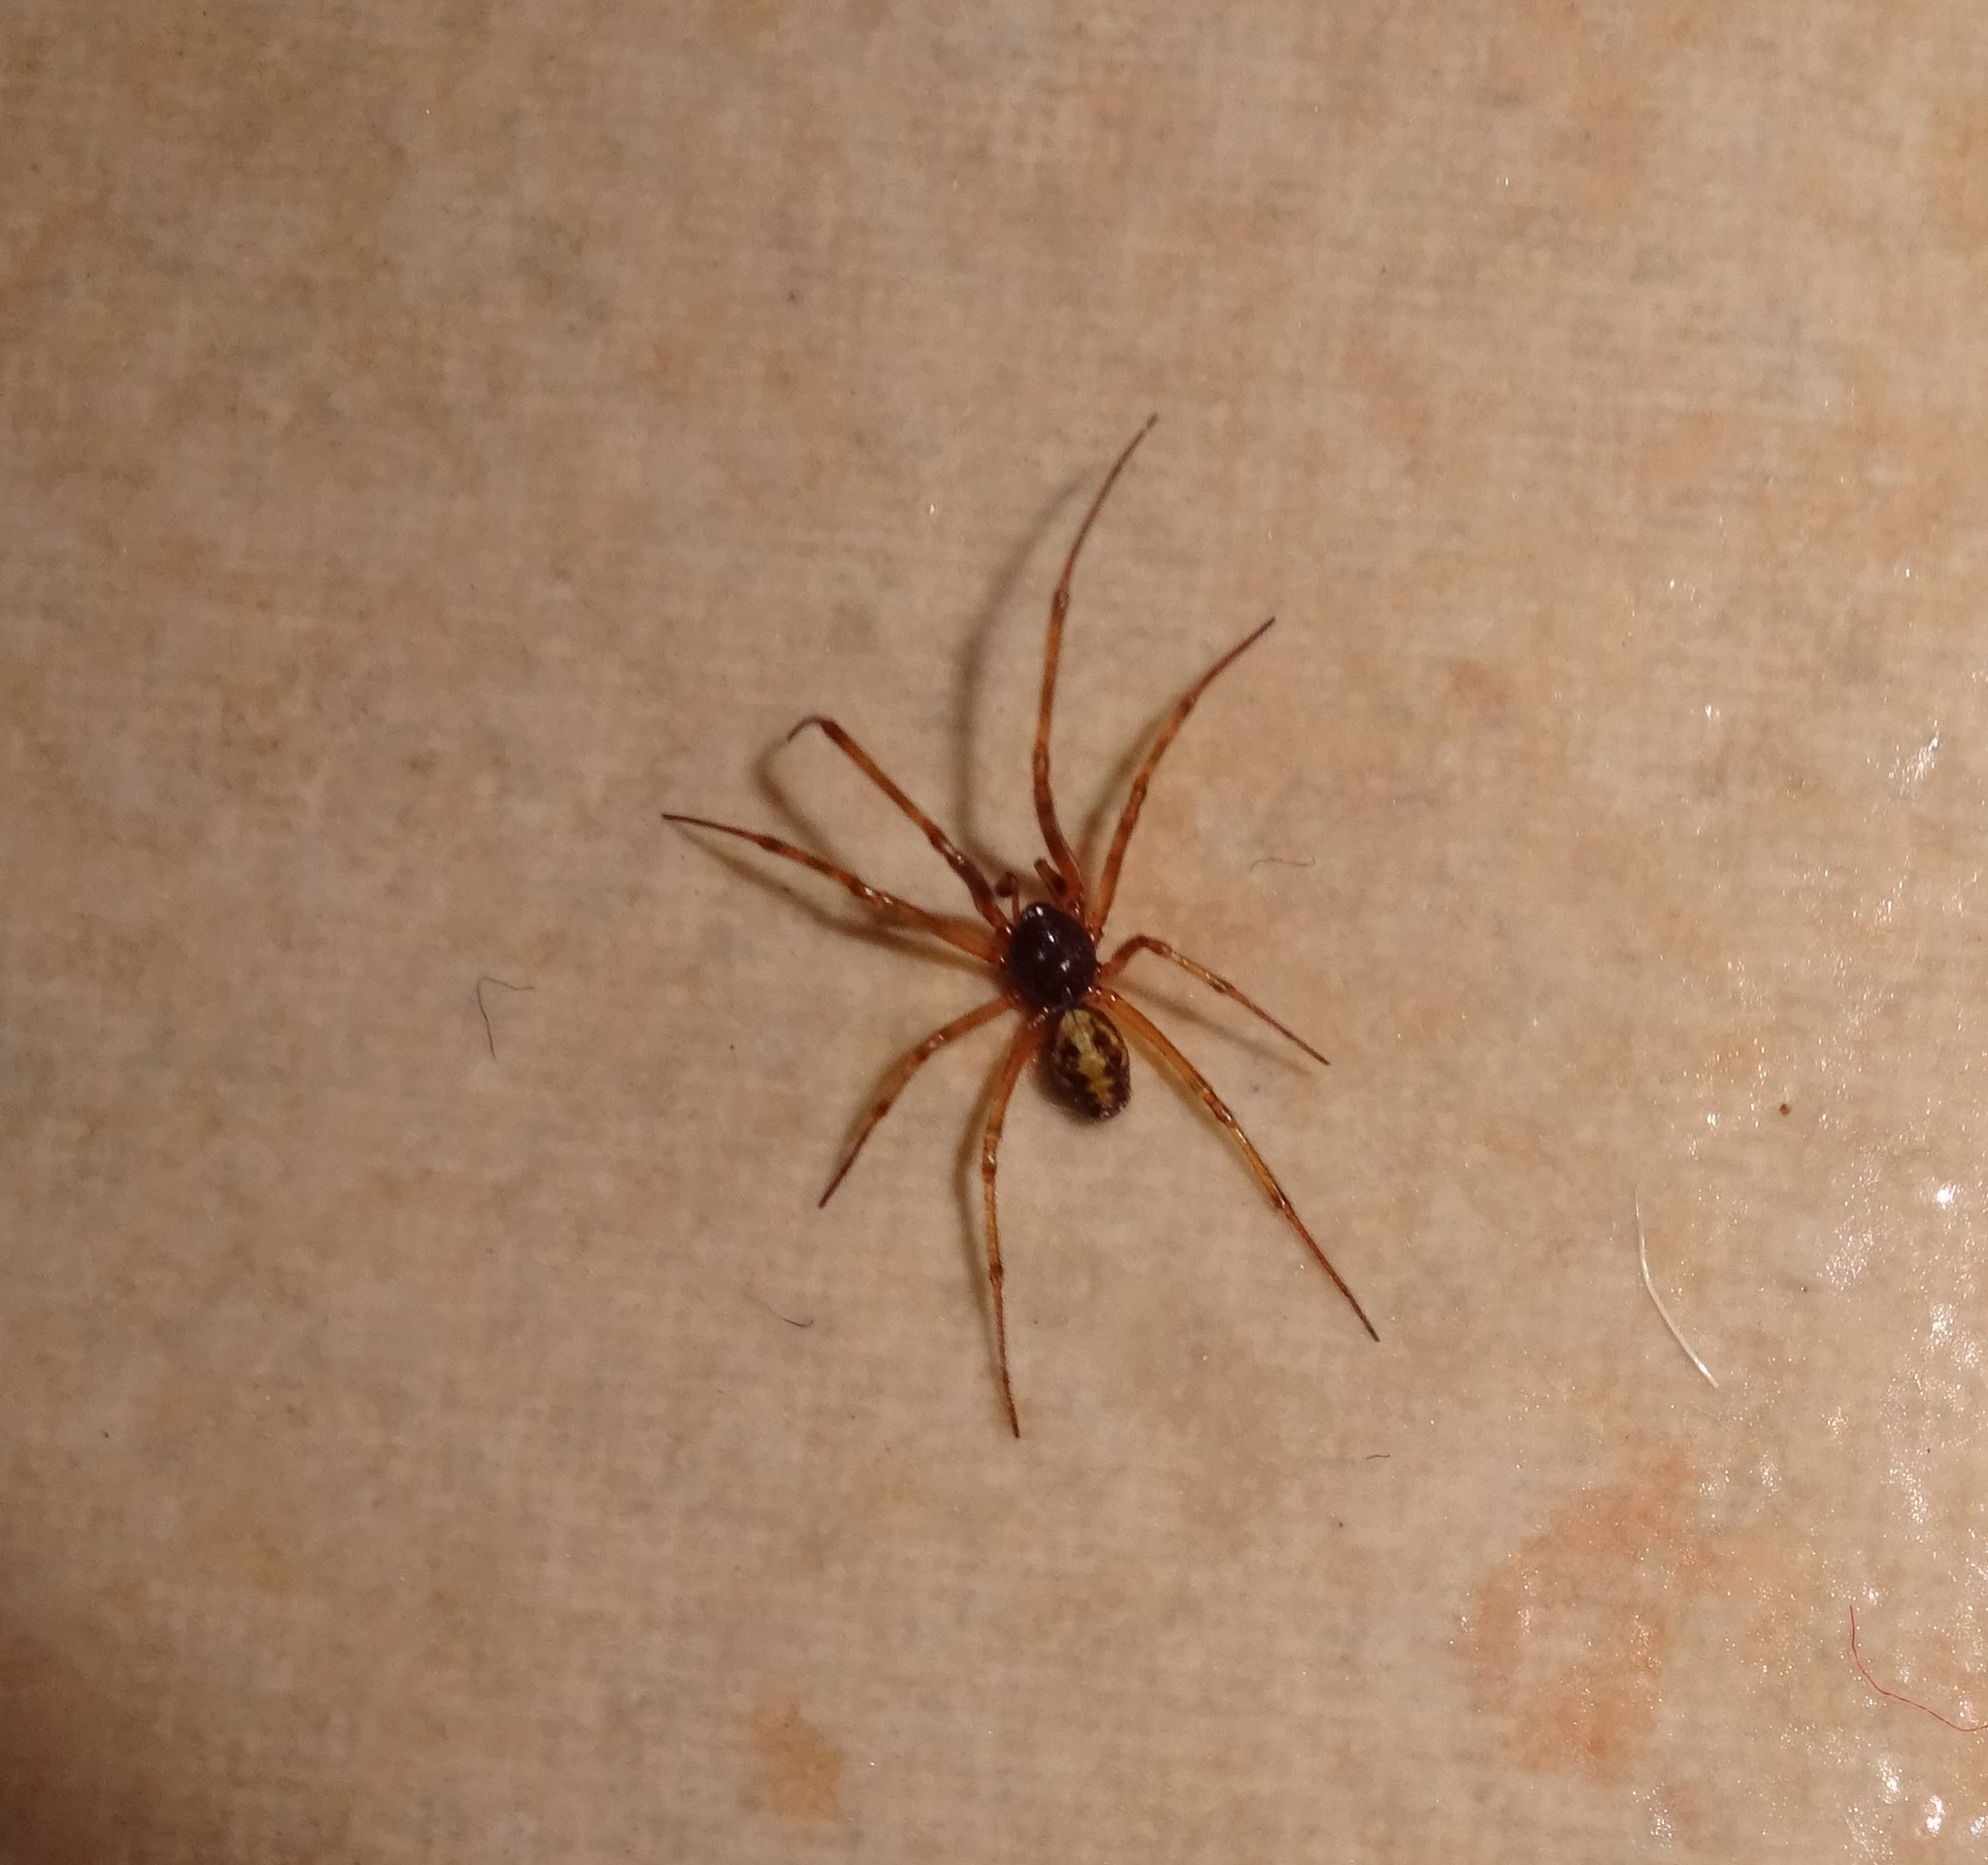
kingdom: Animalia
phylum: Arthropoda
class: Arachnida
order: Araneae
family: Theridiidae
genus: Steatoda
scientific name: Steatoda triangulosa
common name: Triangulate bud spider
